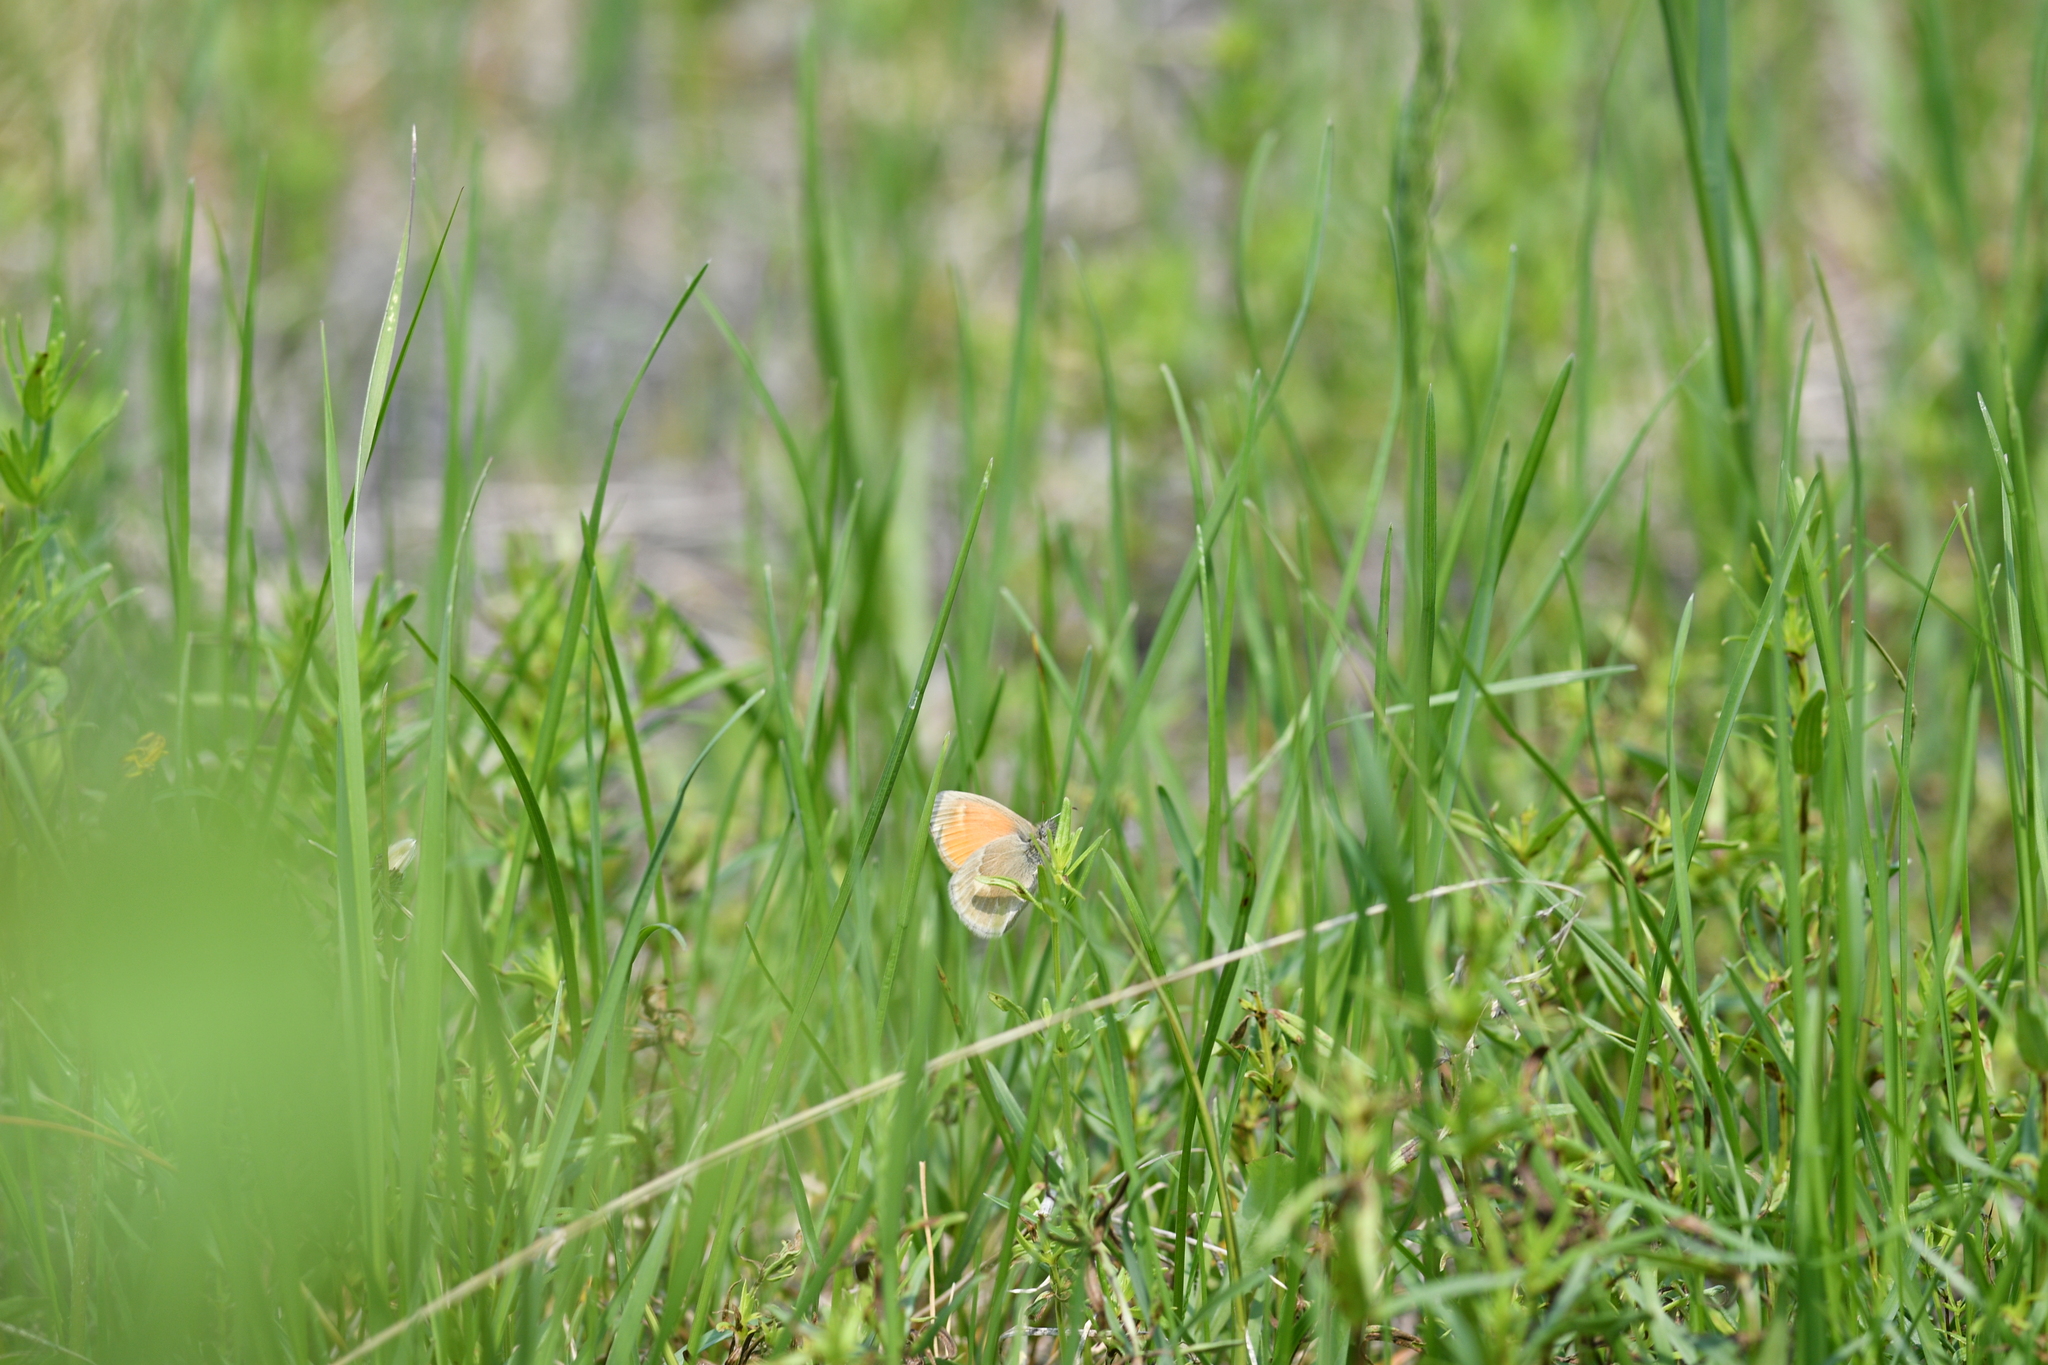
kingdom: Animalia
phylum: Arthropoda
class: Insecta
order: Lepidoptera
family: Nymphalidae
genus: Coenonympha
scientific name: Coenonympha california
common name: Common ringlet
